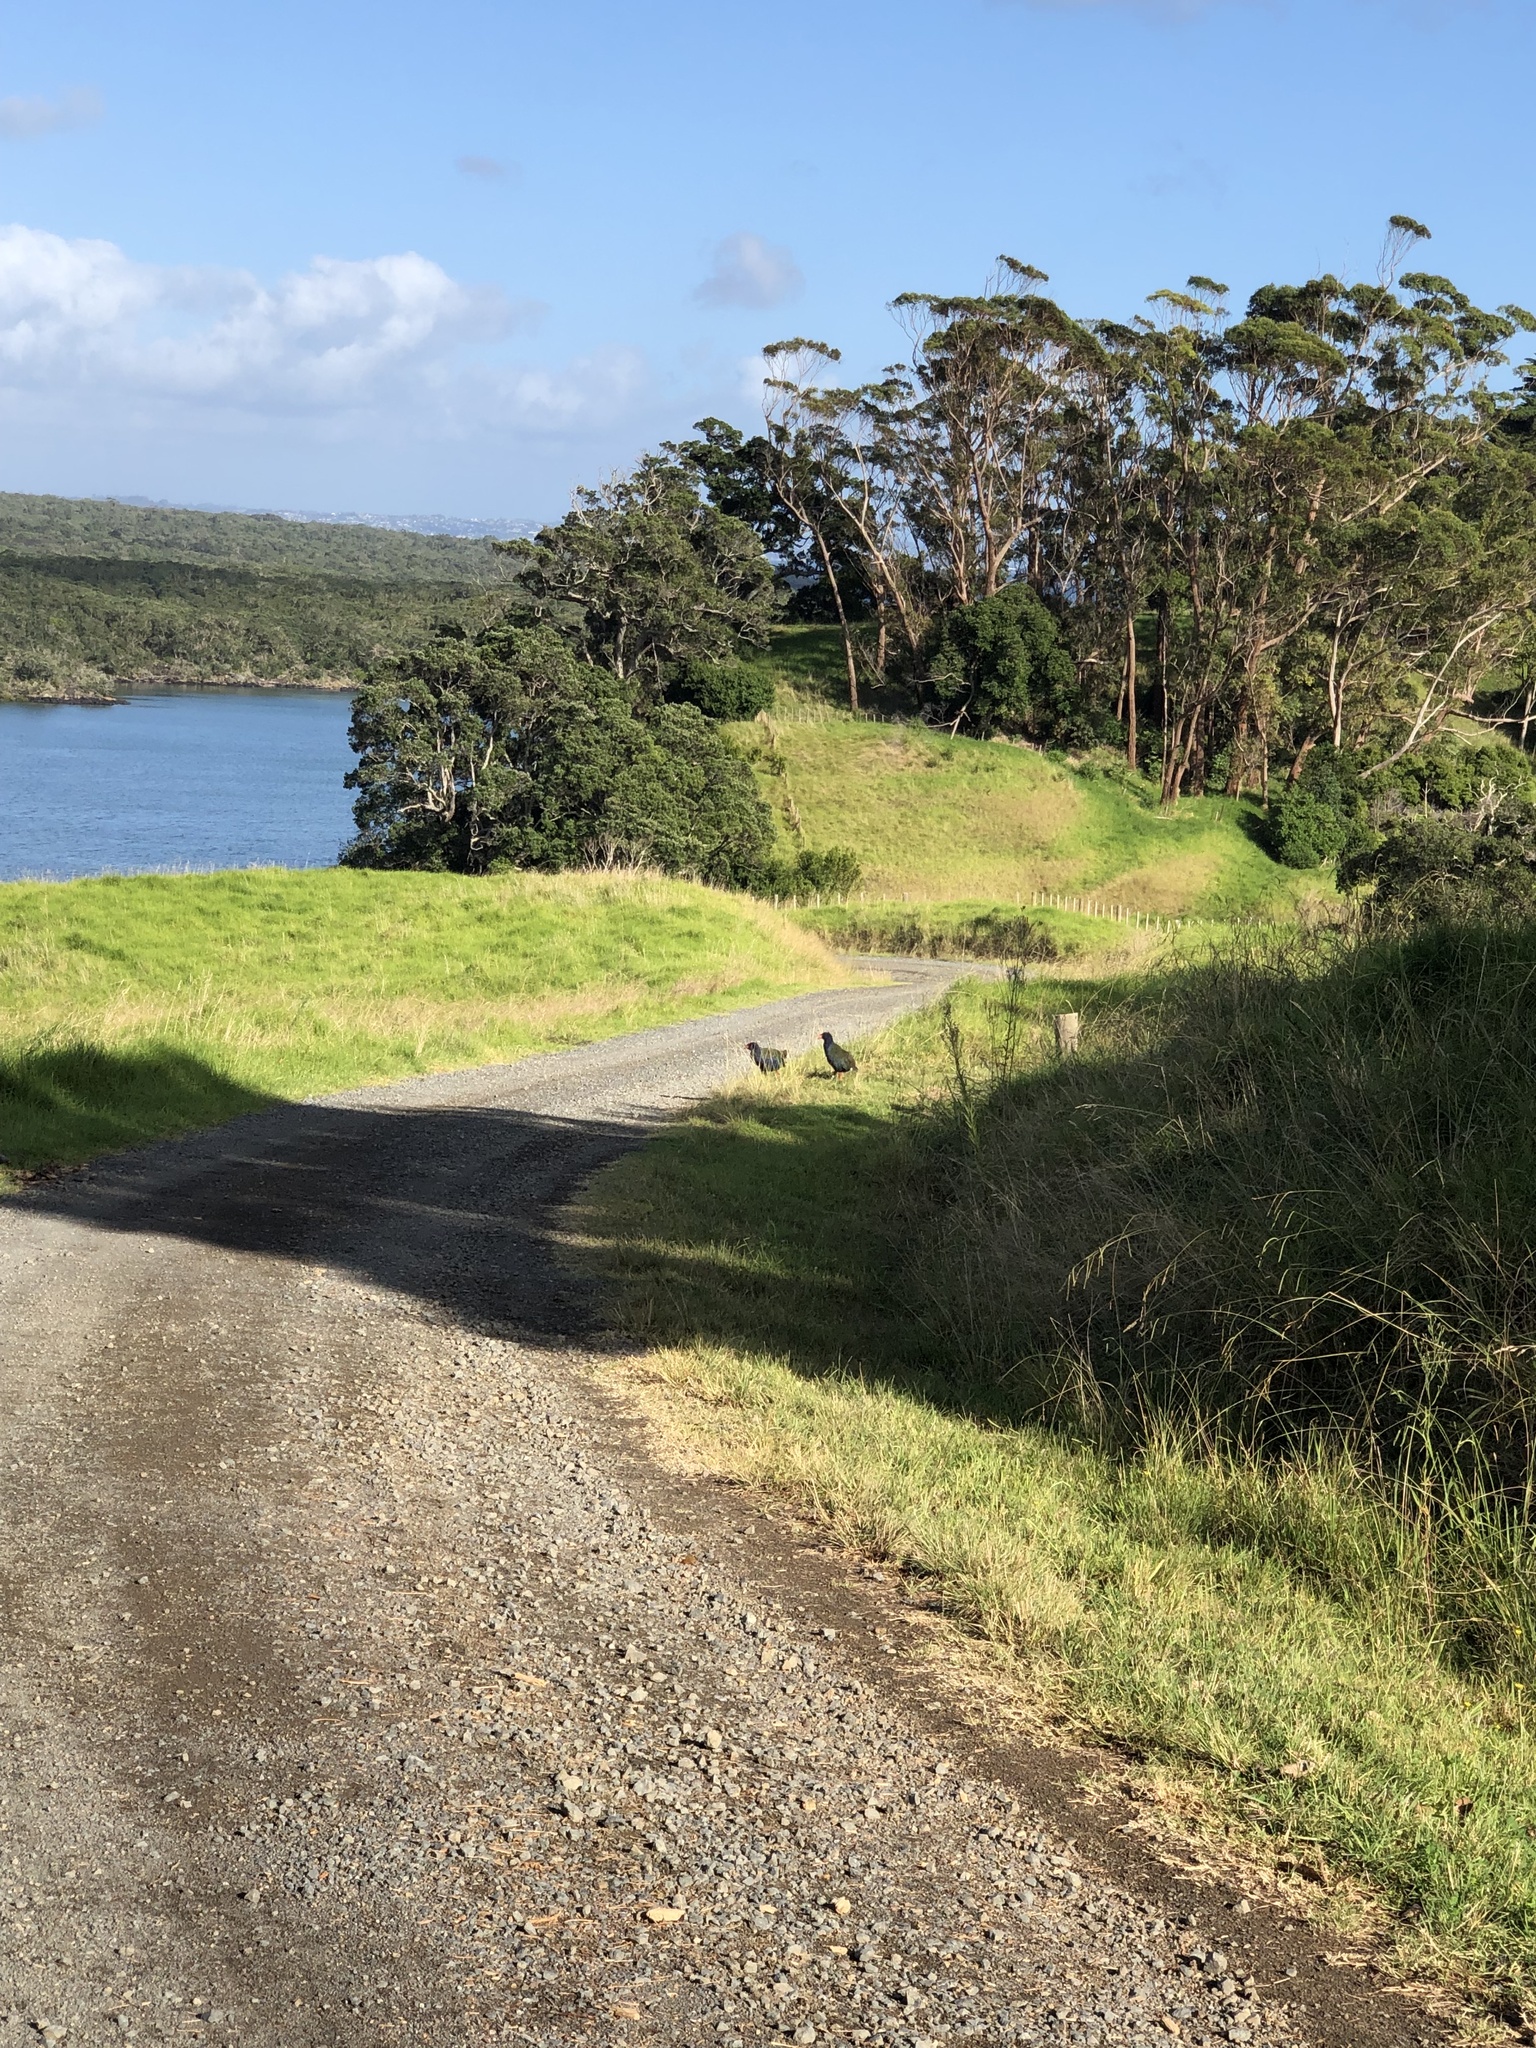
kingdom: Animalia
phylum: Chordata
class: Aves
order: Gruiformes
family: Rallidae
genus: Porphyrio
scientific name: Porphyrio hochstetteri
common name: South island takahe
